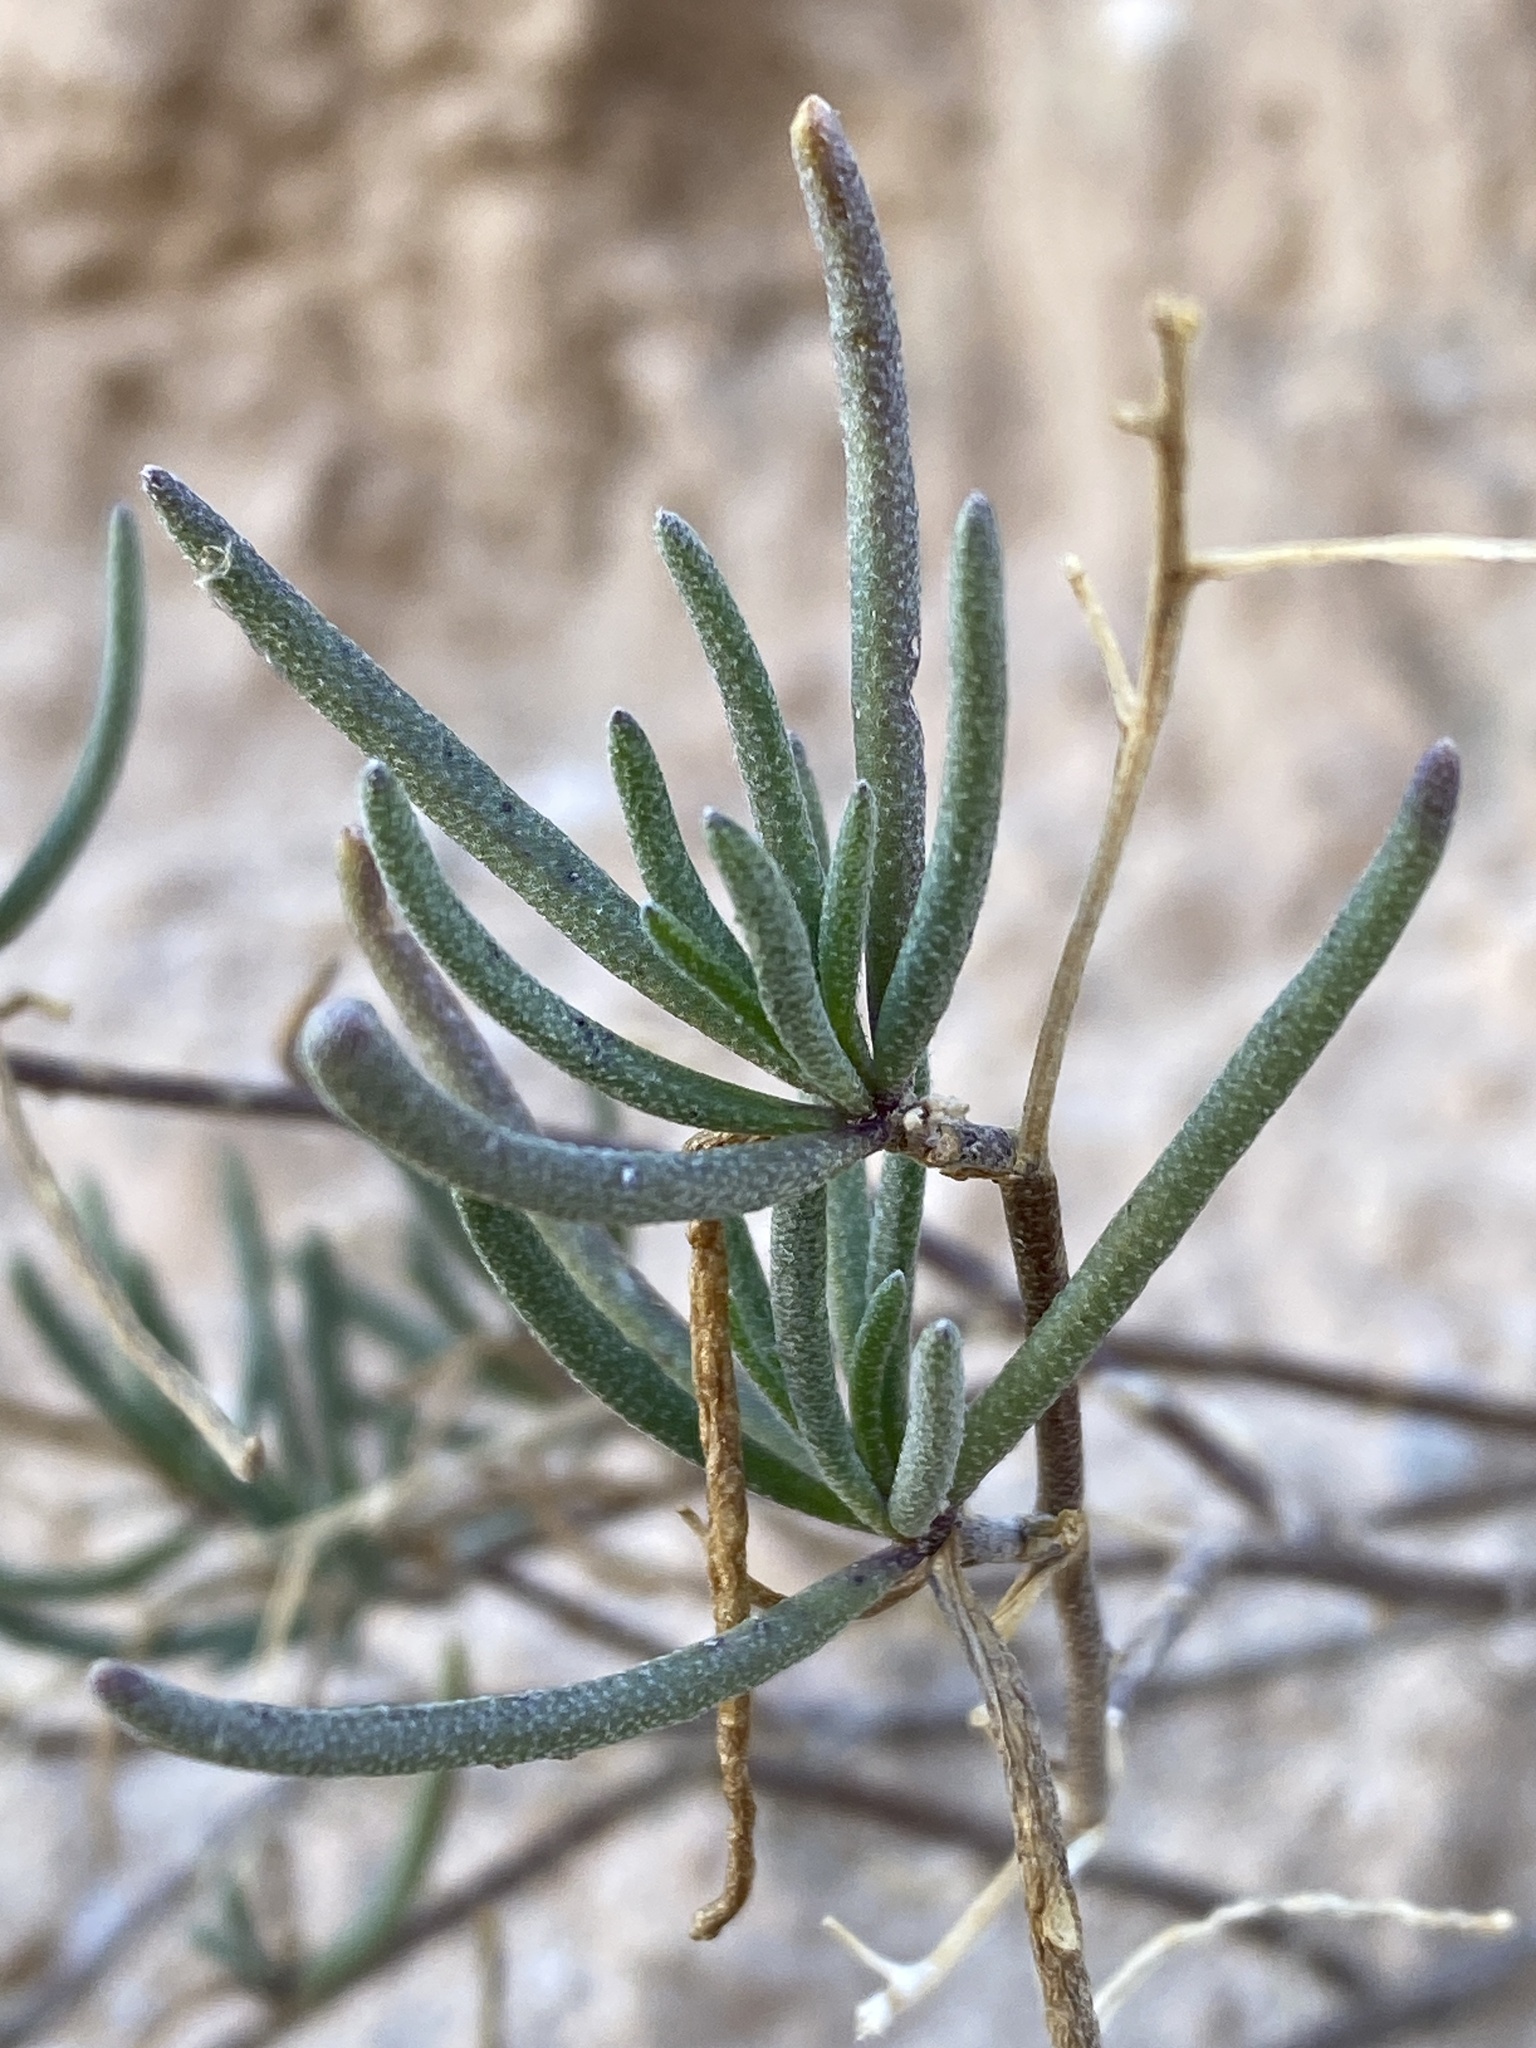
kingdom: Plantae
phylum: Tracheophyta
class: Magnoliopsida
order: Brassicales
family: Brassicaceae
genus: Nerisyrenia
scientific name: Nerisyrenia linearifolia
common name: White sands fan mustard
